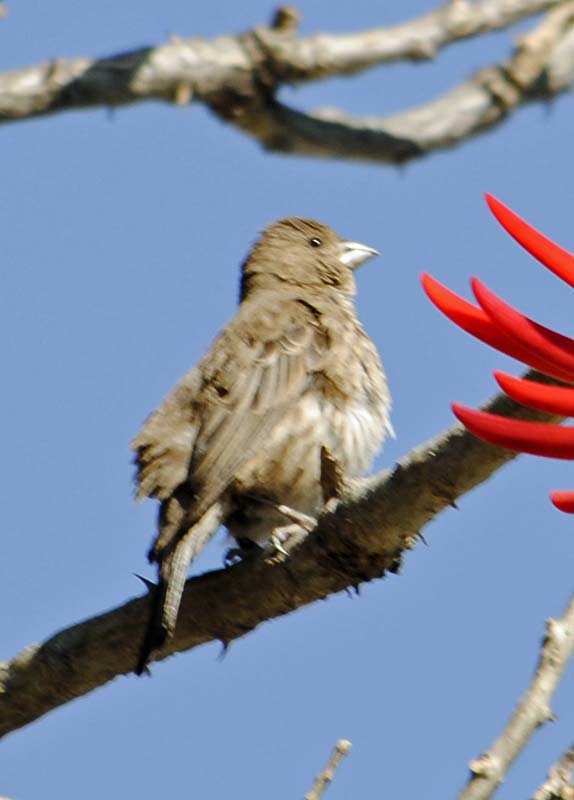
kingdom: Animalia
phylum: Chordata
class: Aves
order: Passeriformes
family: Fringillidae
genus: Haemorhous
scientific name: Haemorhous mexicanus
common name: House finch
